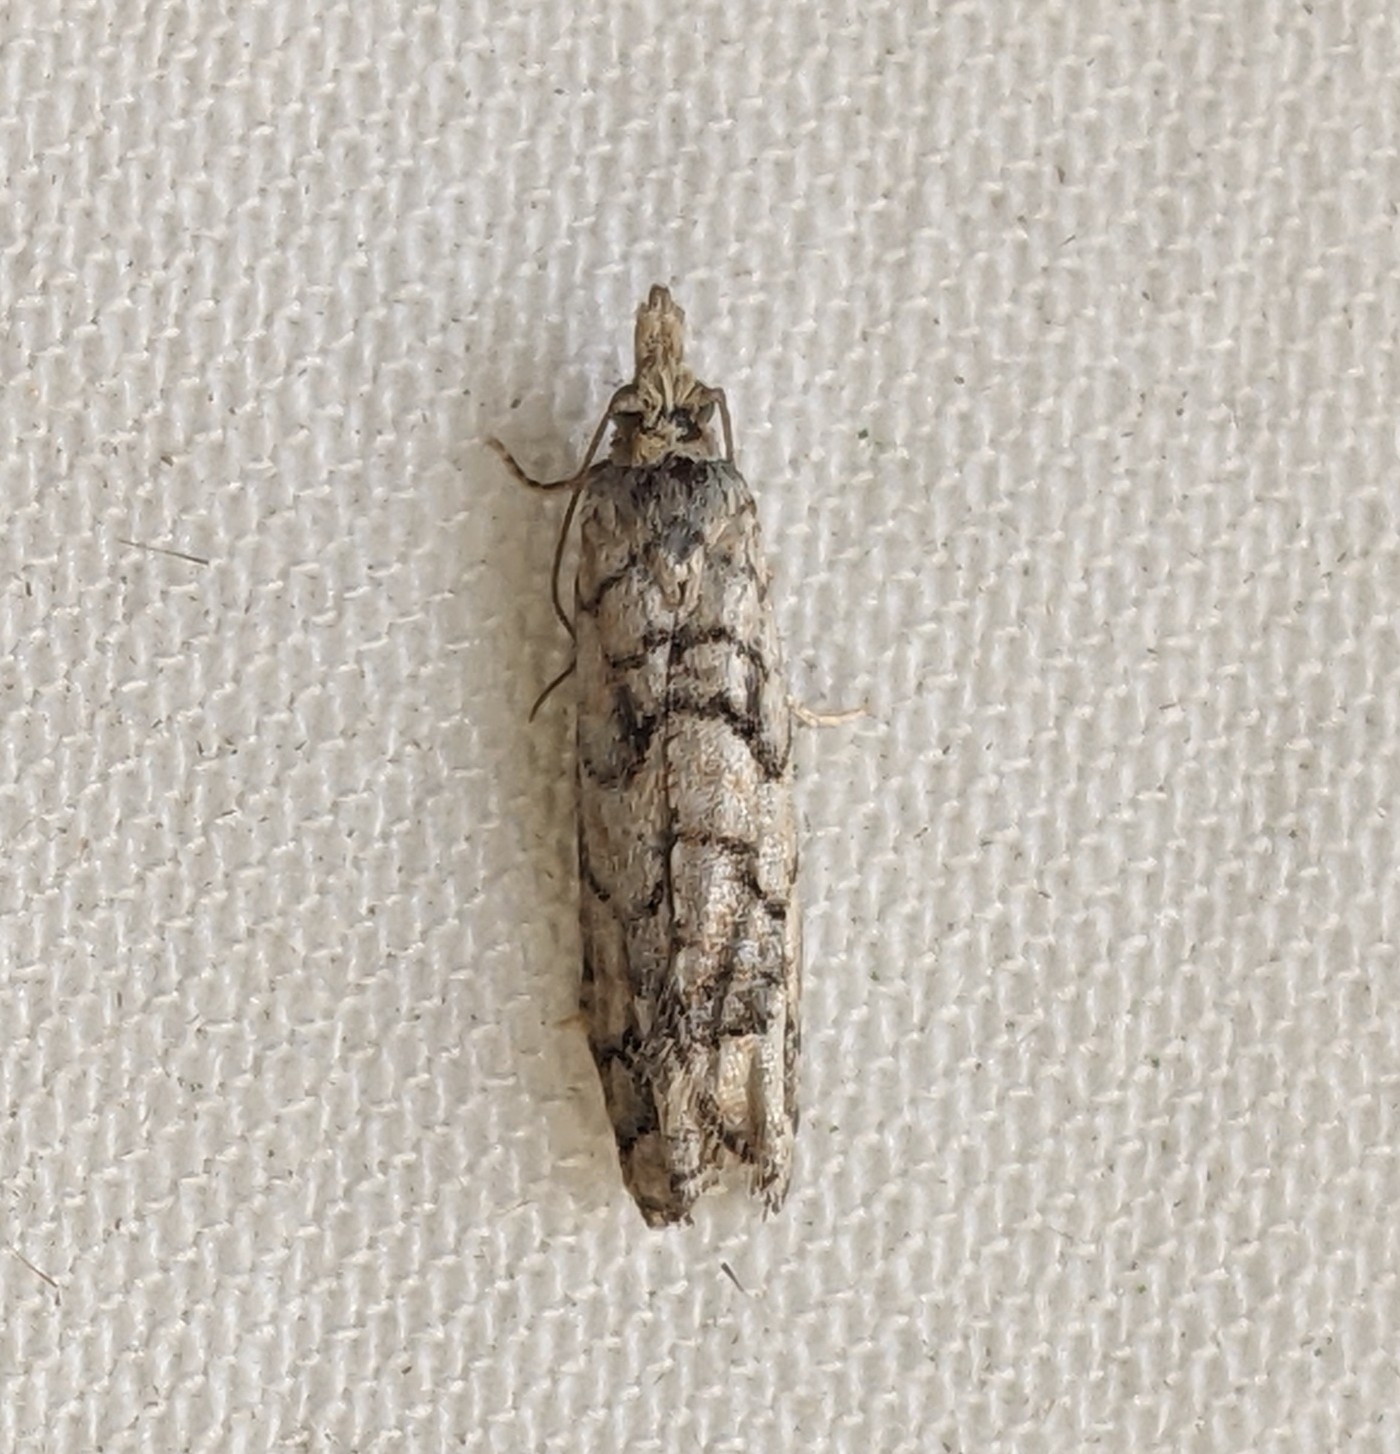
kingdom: Animalia
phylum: Arthropoda
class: Insecta
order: Lepidoptera
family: Tortricidae
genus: Epinotia
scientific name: Epinotia subviridis
